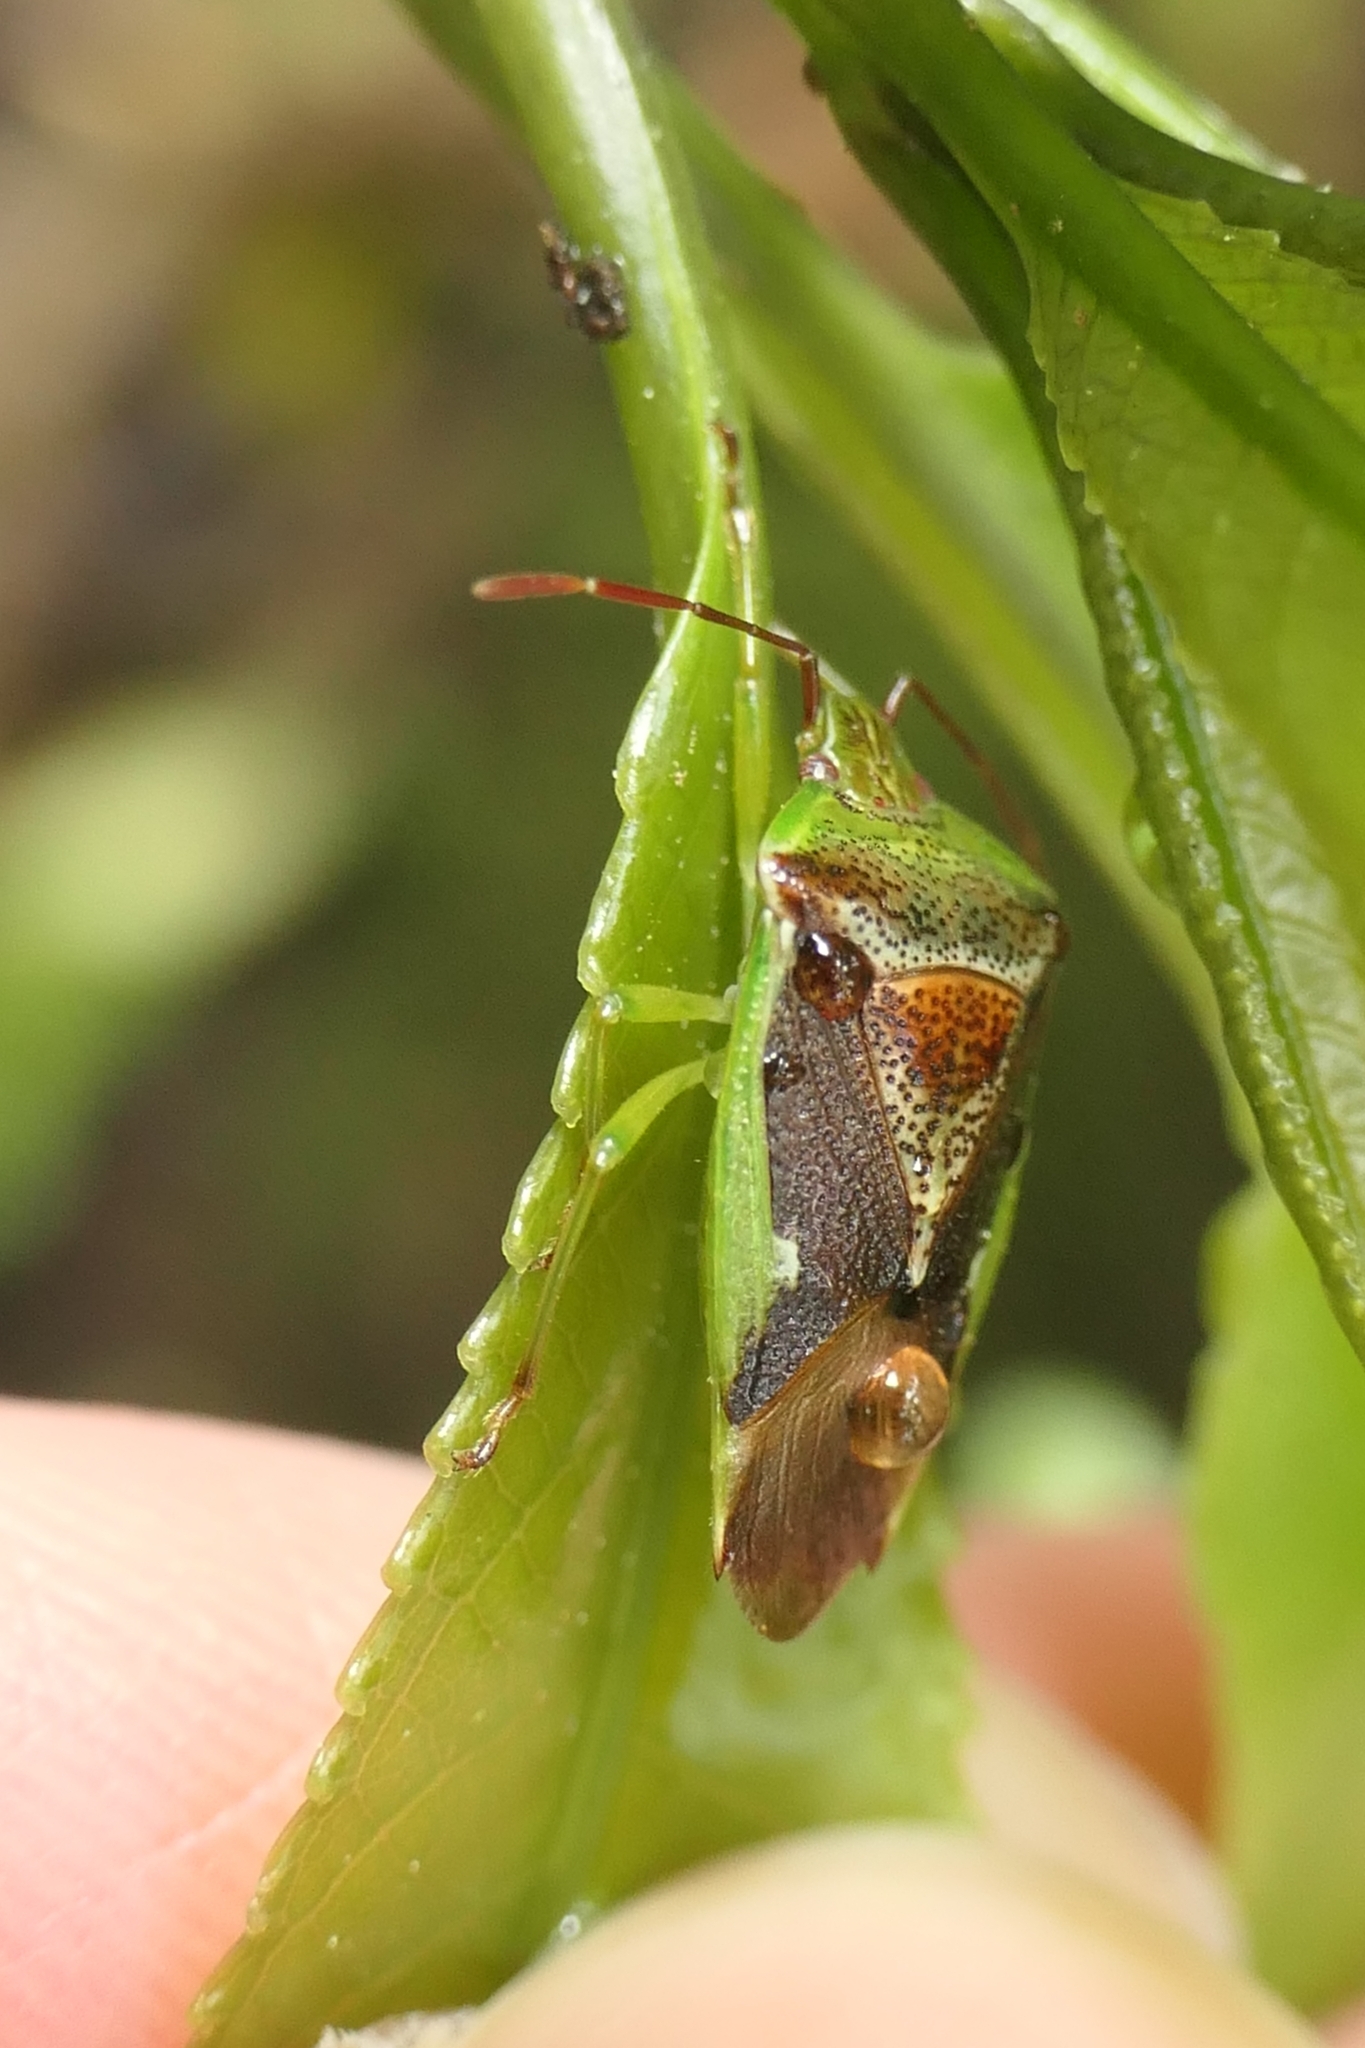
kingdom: Animalia
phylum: Arthropoda
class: Insecta
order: Hemiptera
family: Acanthosomatidae
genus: Oncacontias
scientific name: Oncacontias vittatus
